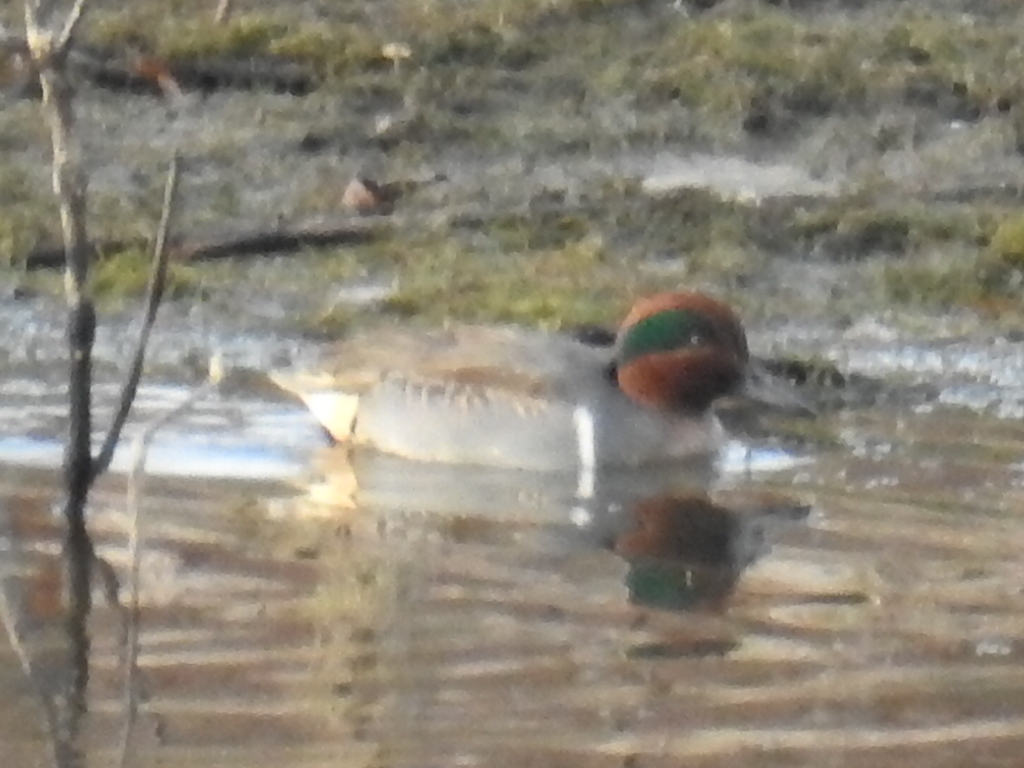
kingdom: Animalia
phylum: Chordata
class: Aves
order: Anseriformes
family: Anatidae
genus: Anas
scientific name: Anas crecca
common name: Eurasian teal
